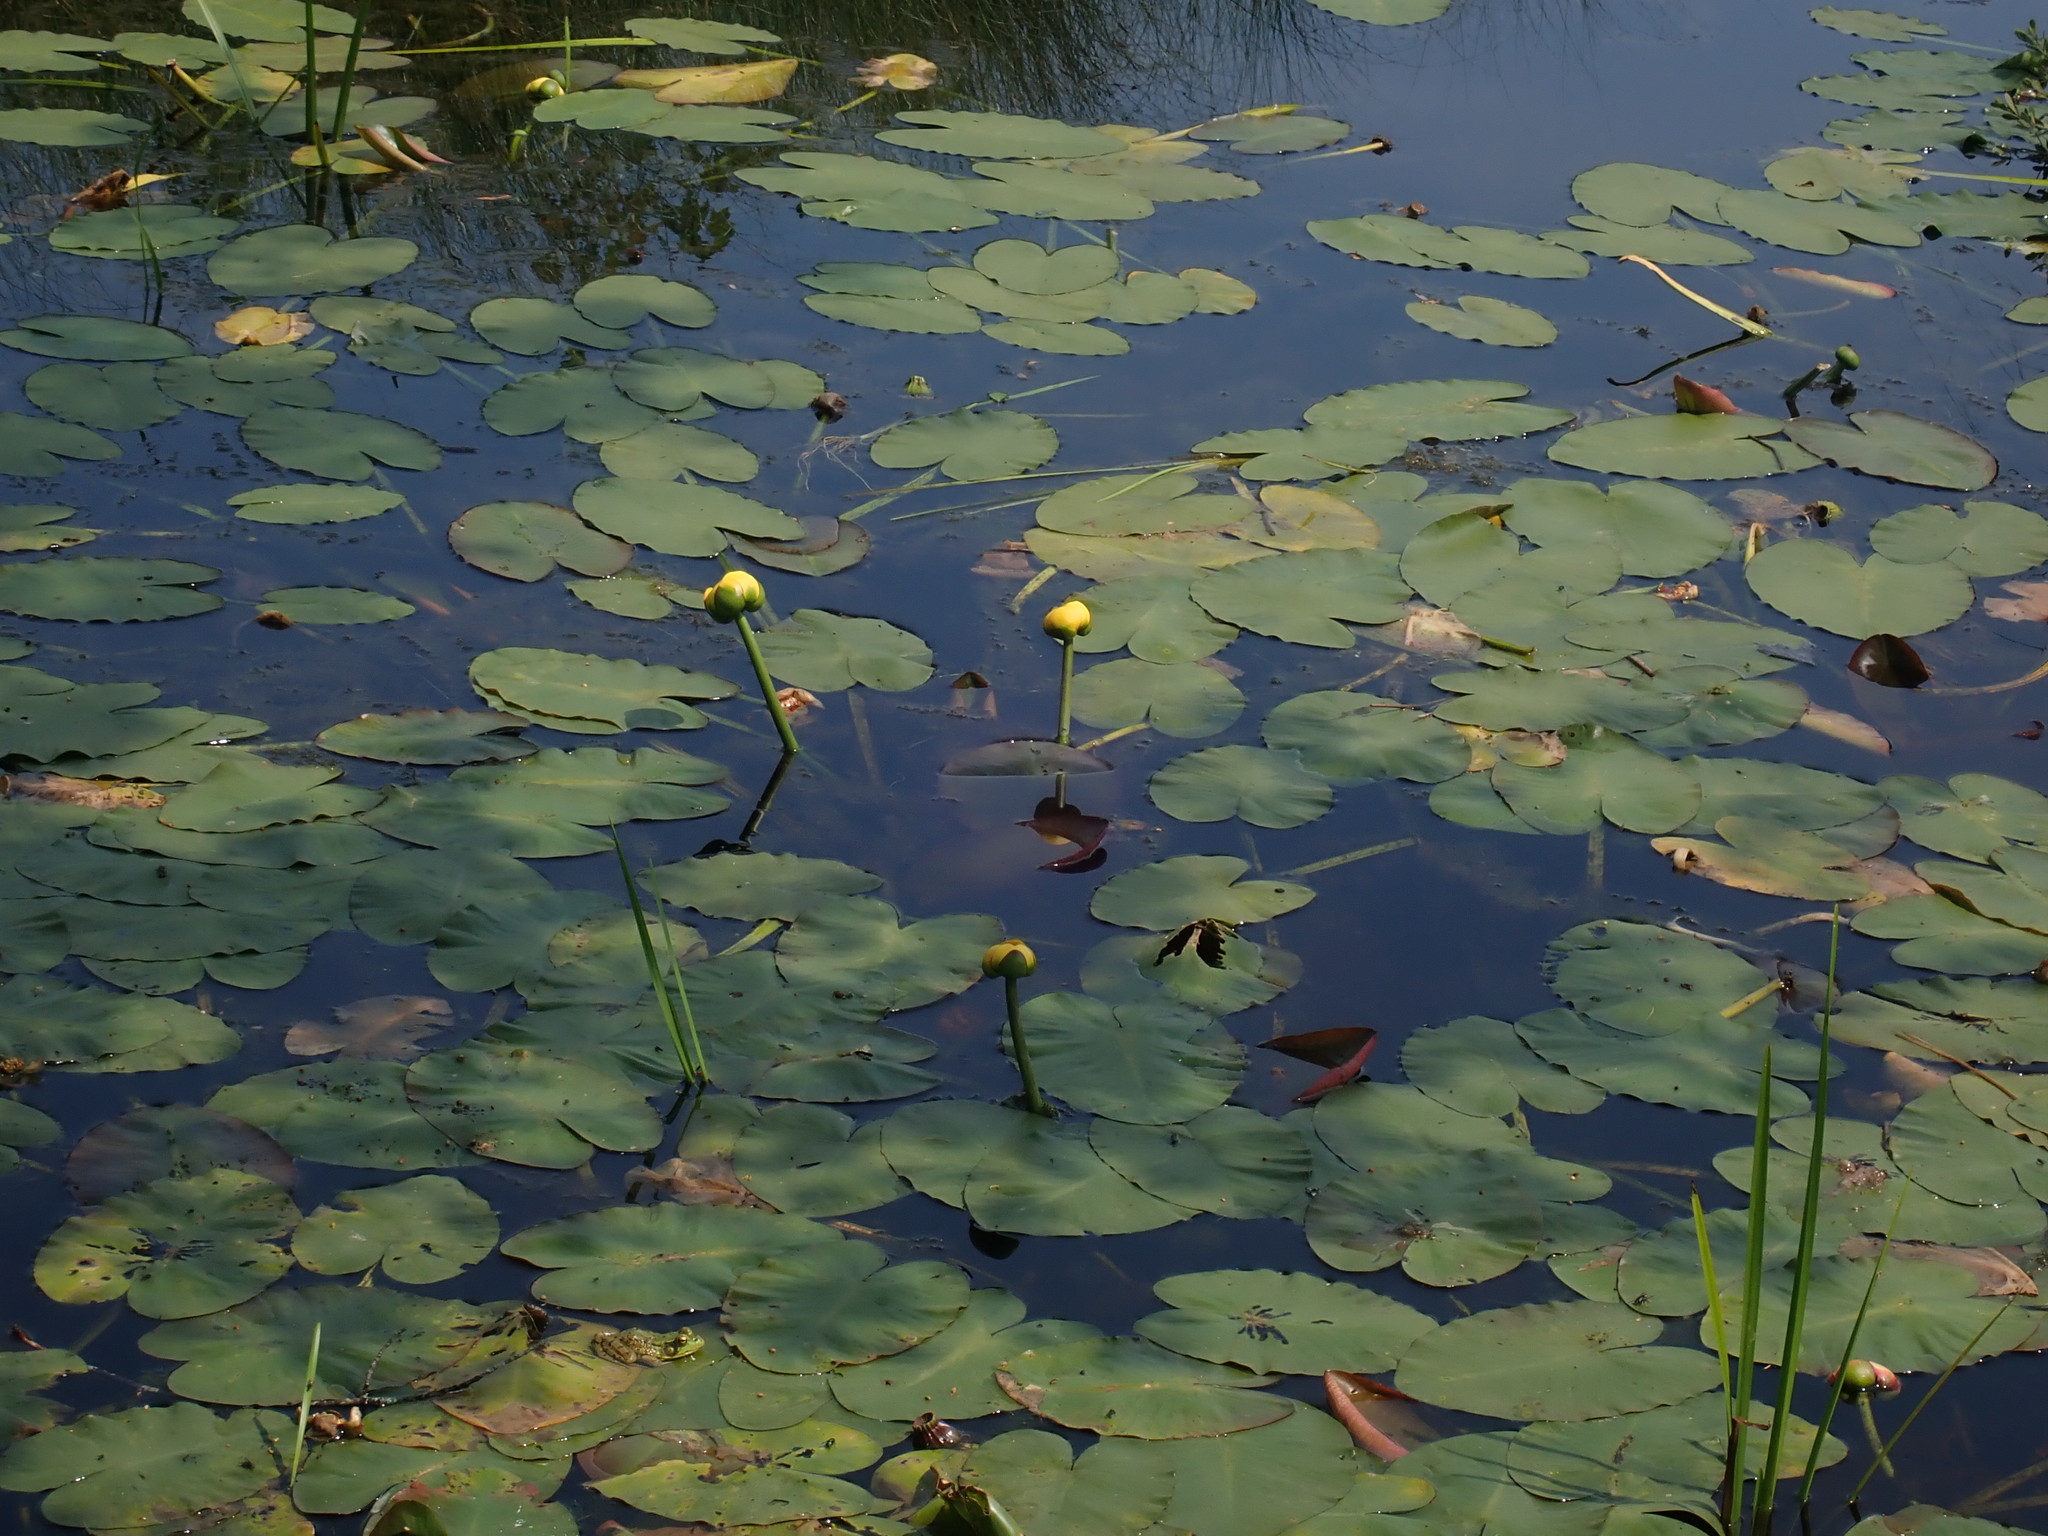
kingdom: Plantae
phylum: Tracheophyta
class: Magnoliopsida
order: Nymphaeales
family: Nymphaeaceae
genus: Nuphar
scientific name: Nuphar variegata
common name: Beaver-root
